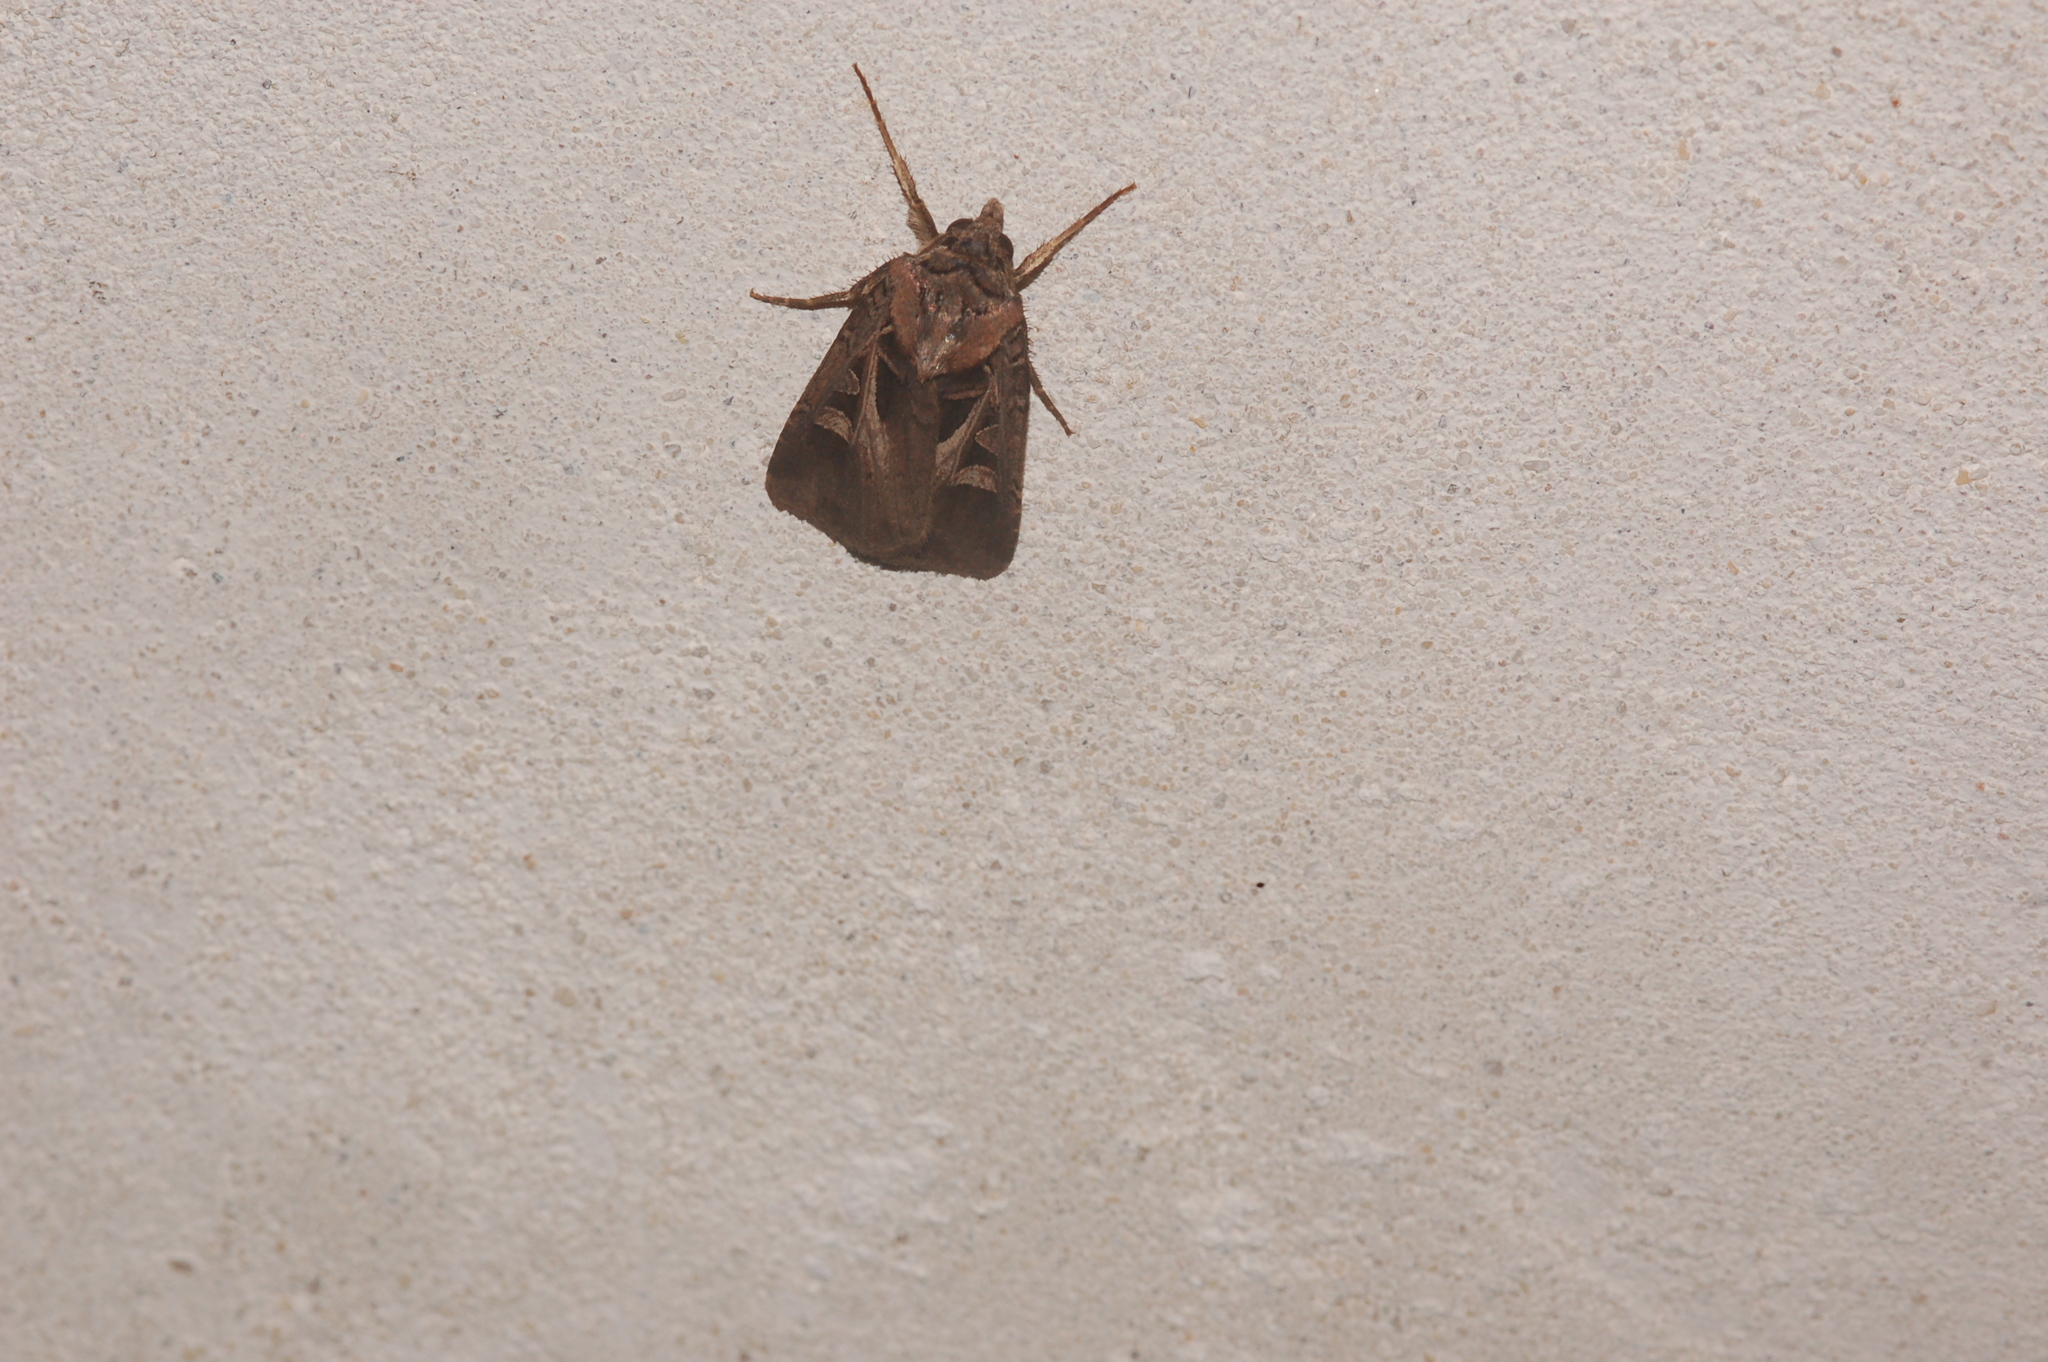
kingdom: Animalia
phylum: Arthropoda
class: Insecta
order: Lepidoptera
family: Noctuidae
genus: Feltia
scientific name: Feltia herilis
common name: Master's dart
